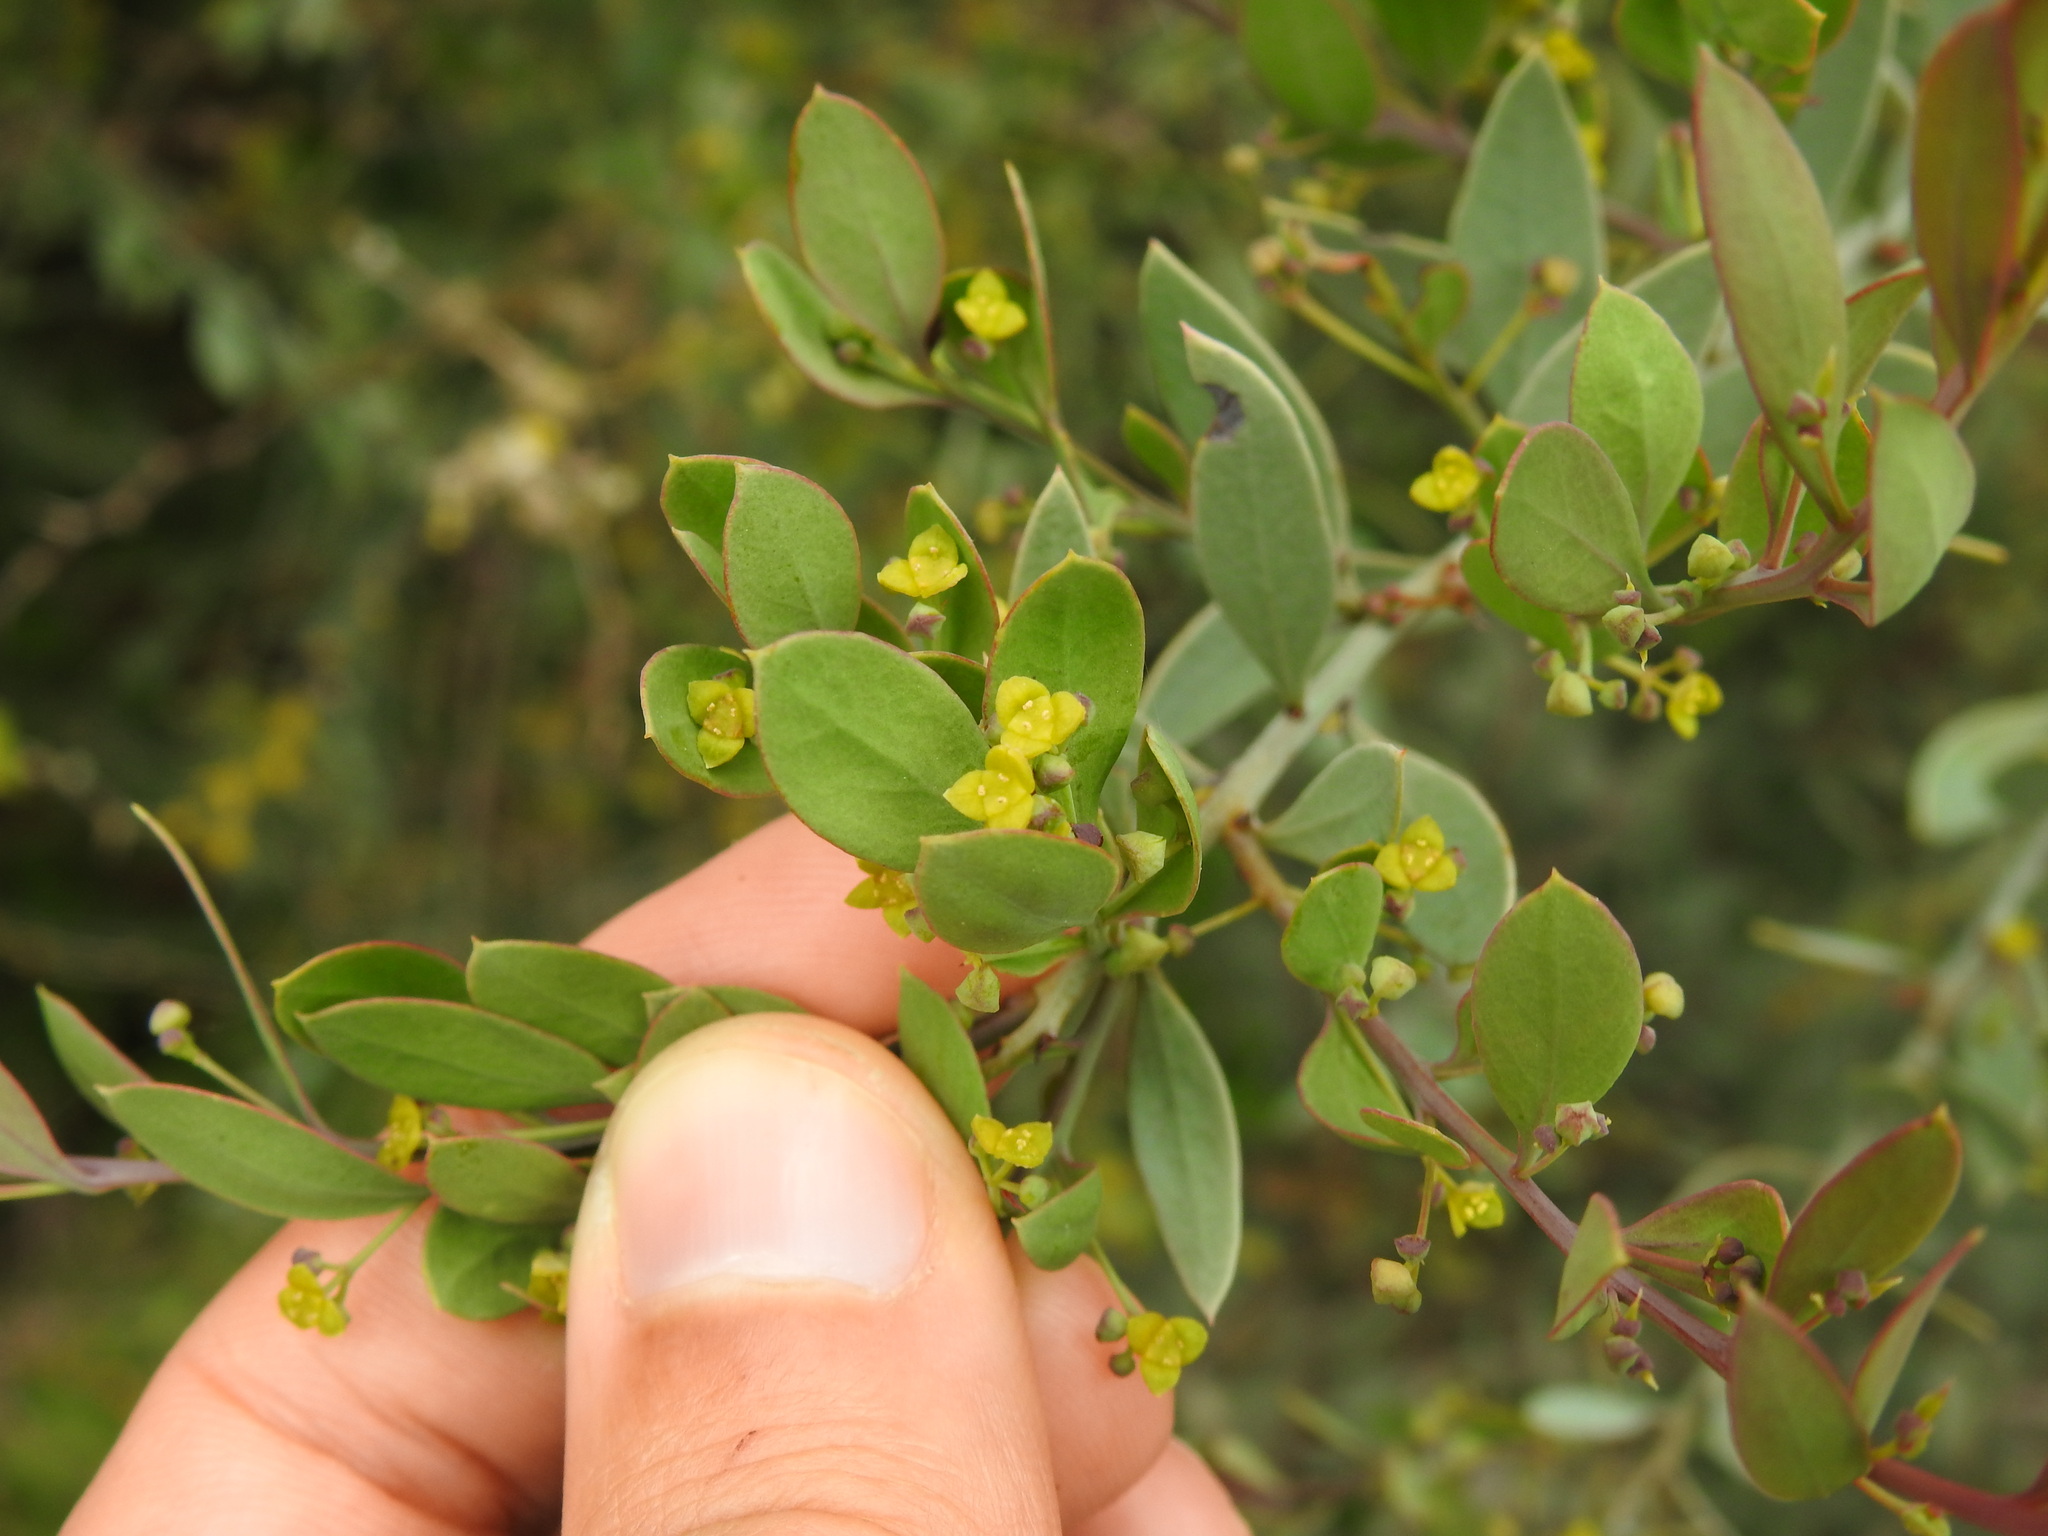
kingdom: Plantae
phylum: Tracheophyta
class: Magnoliopsida
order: Santalales
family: Santalaceae
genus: Osyris
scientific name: Osyris lanceolata
